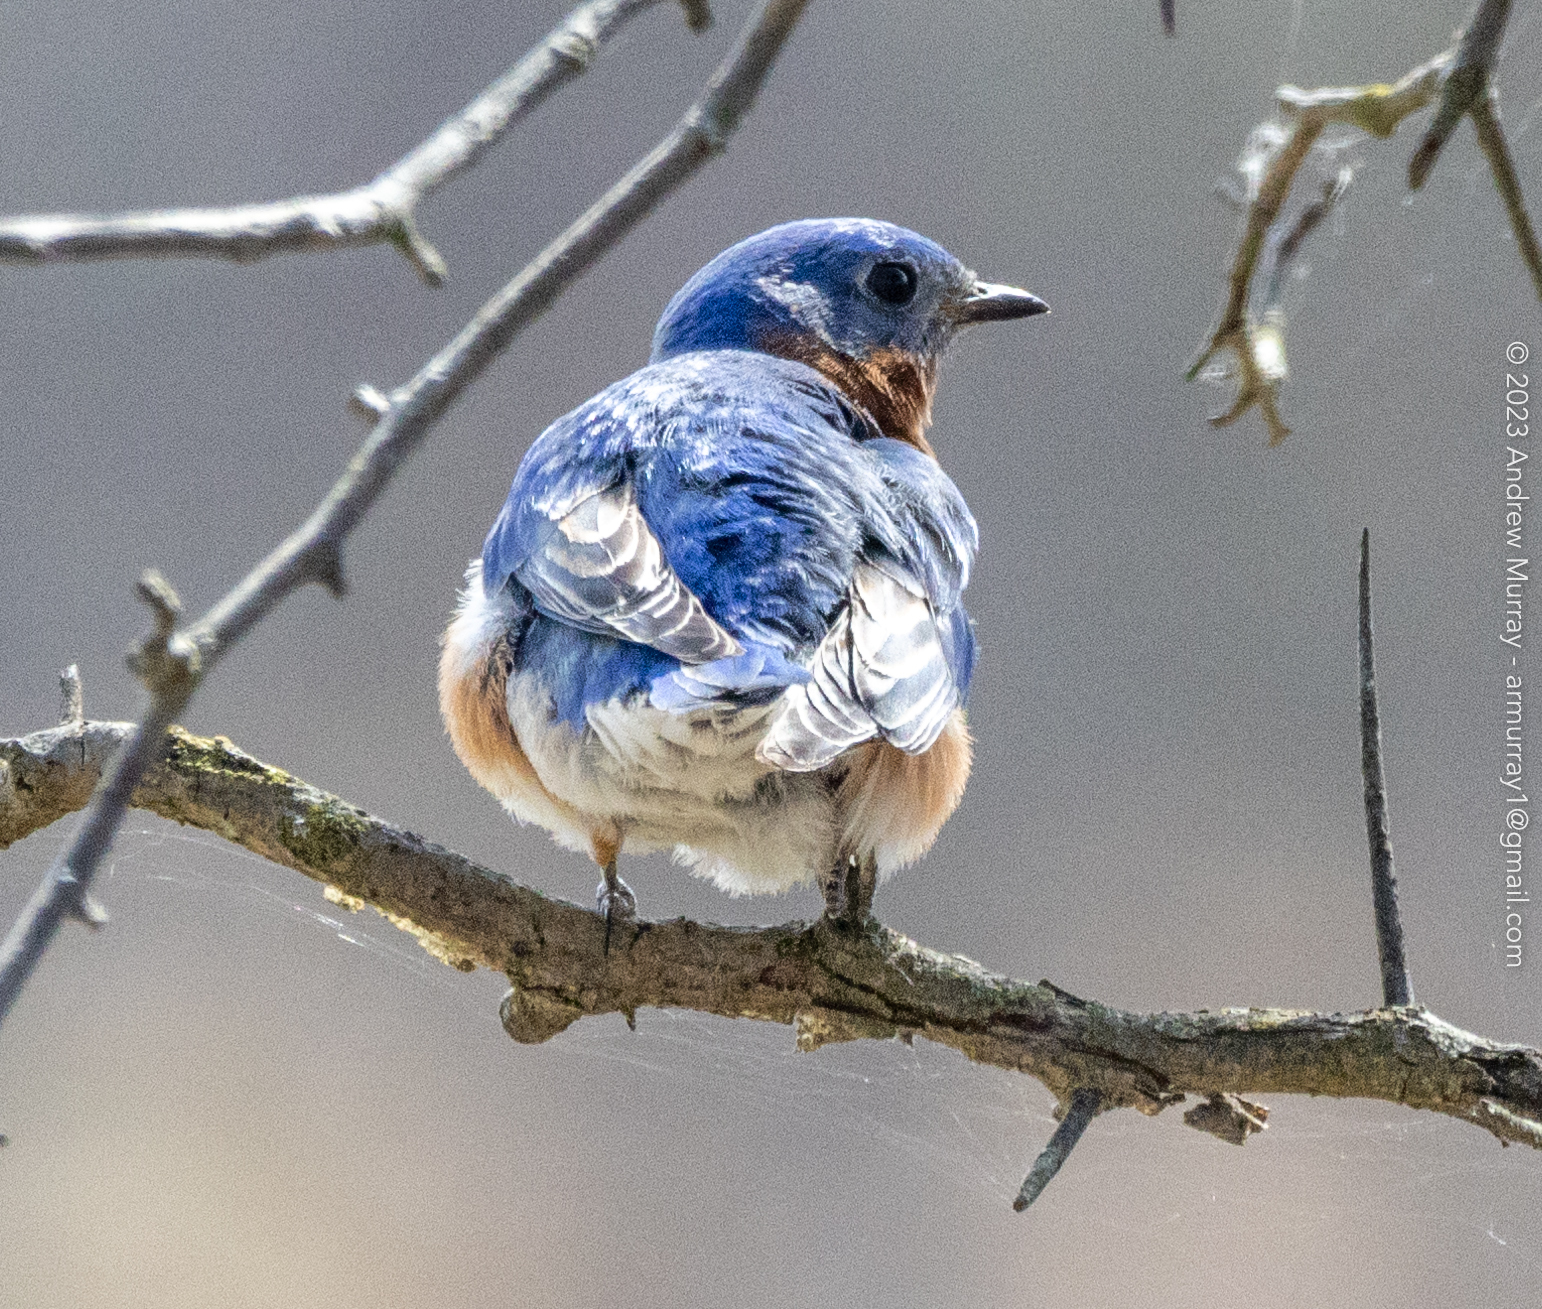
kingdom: Animalia
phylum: Chordata
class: Aves
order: Passeriformes
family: Turdidae
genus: Sialia
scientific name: Sialia sialis
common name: Eastern bluebird
